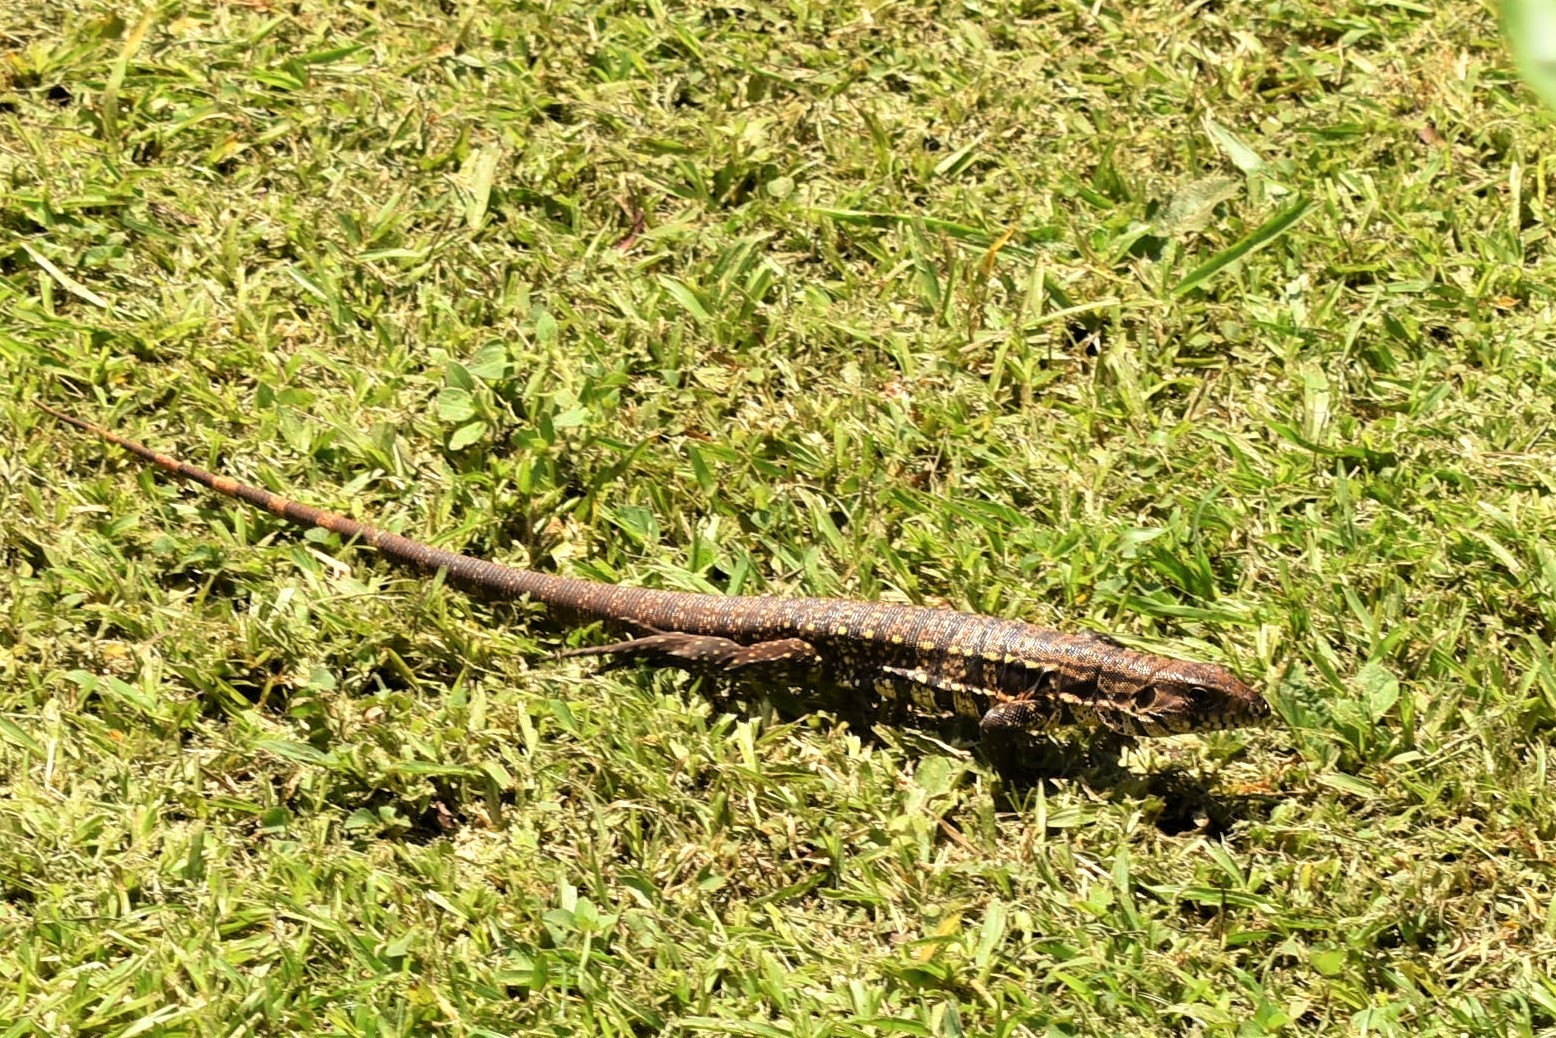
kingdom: Animalia
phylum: Chordata
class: Squamata
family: Teiidae
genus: Salvator
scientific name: Salvator merianae
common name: Argentine black and white tegu
